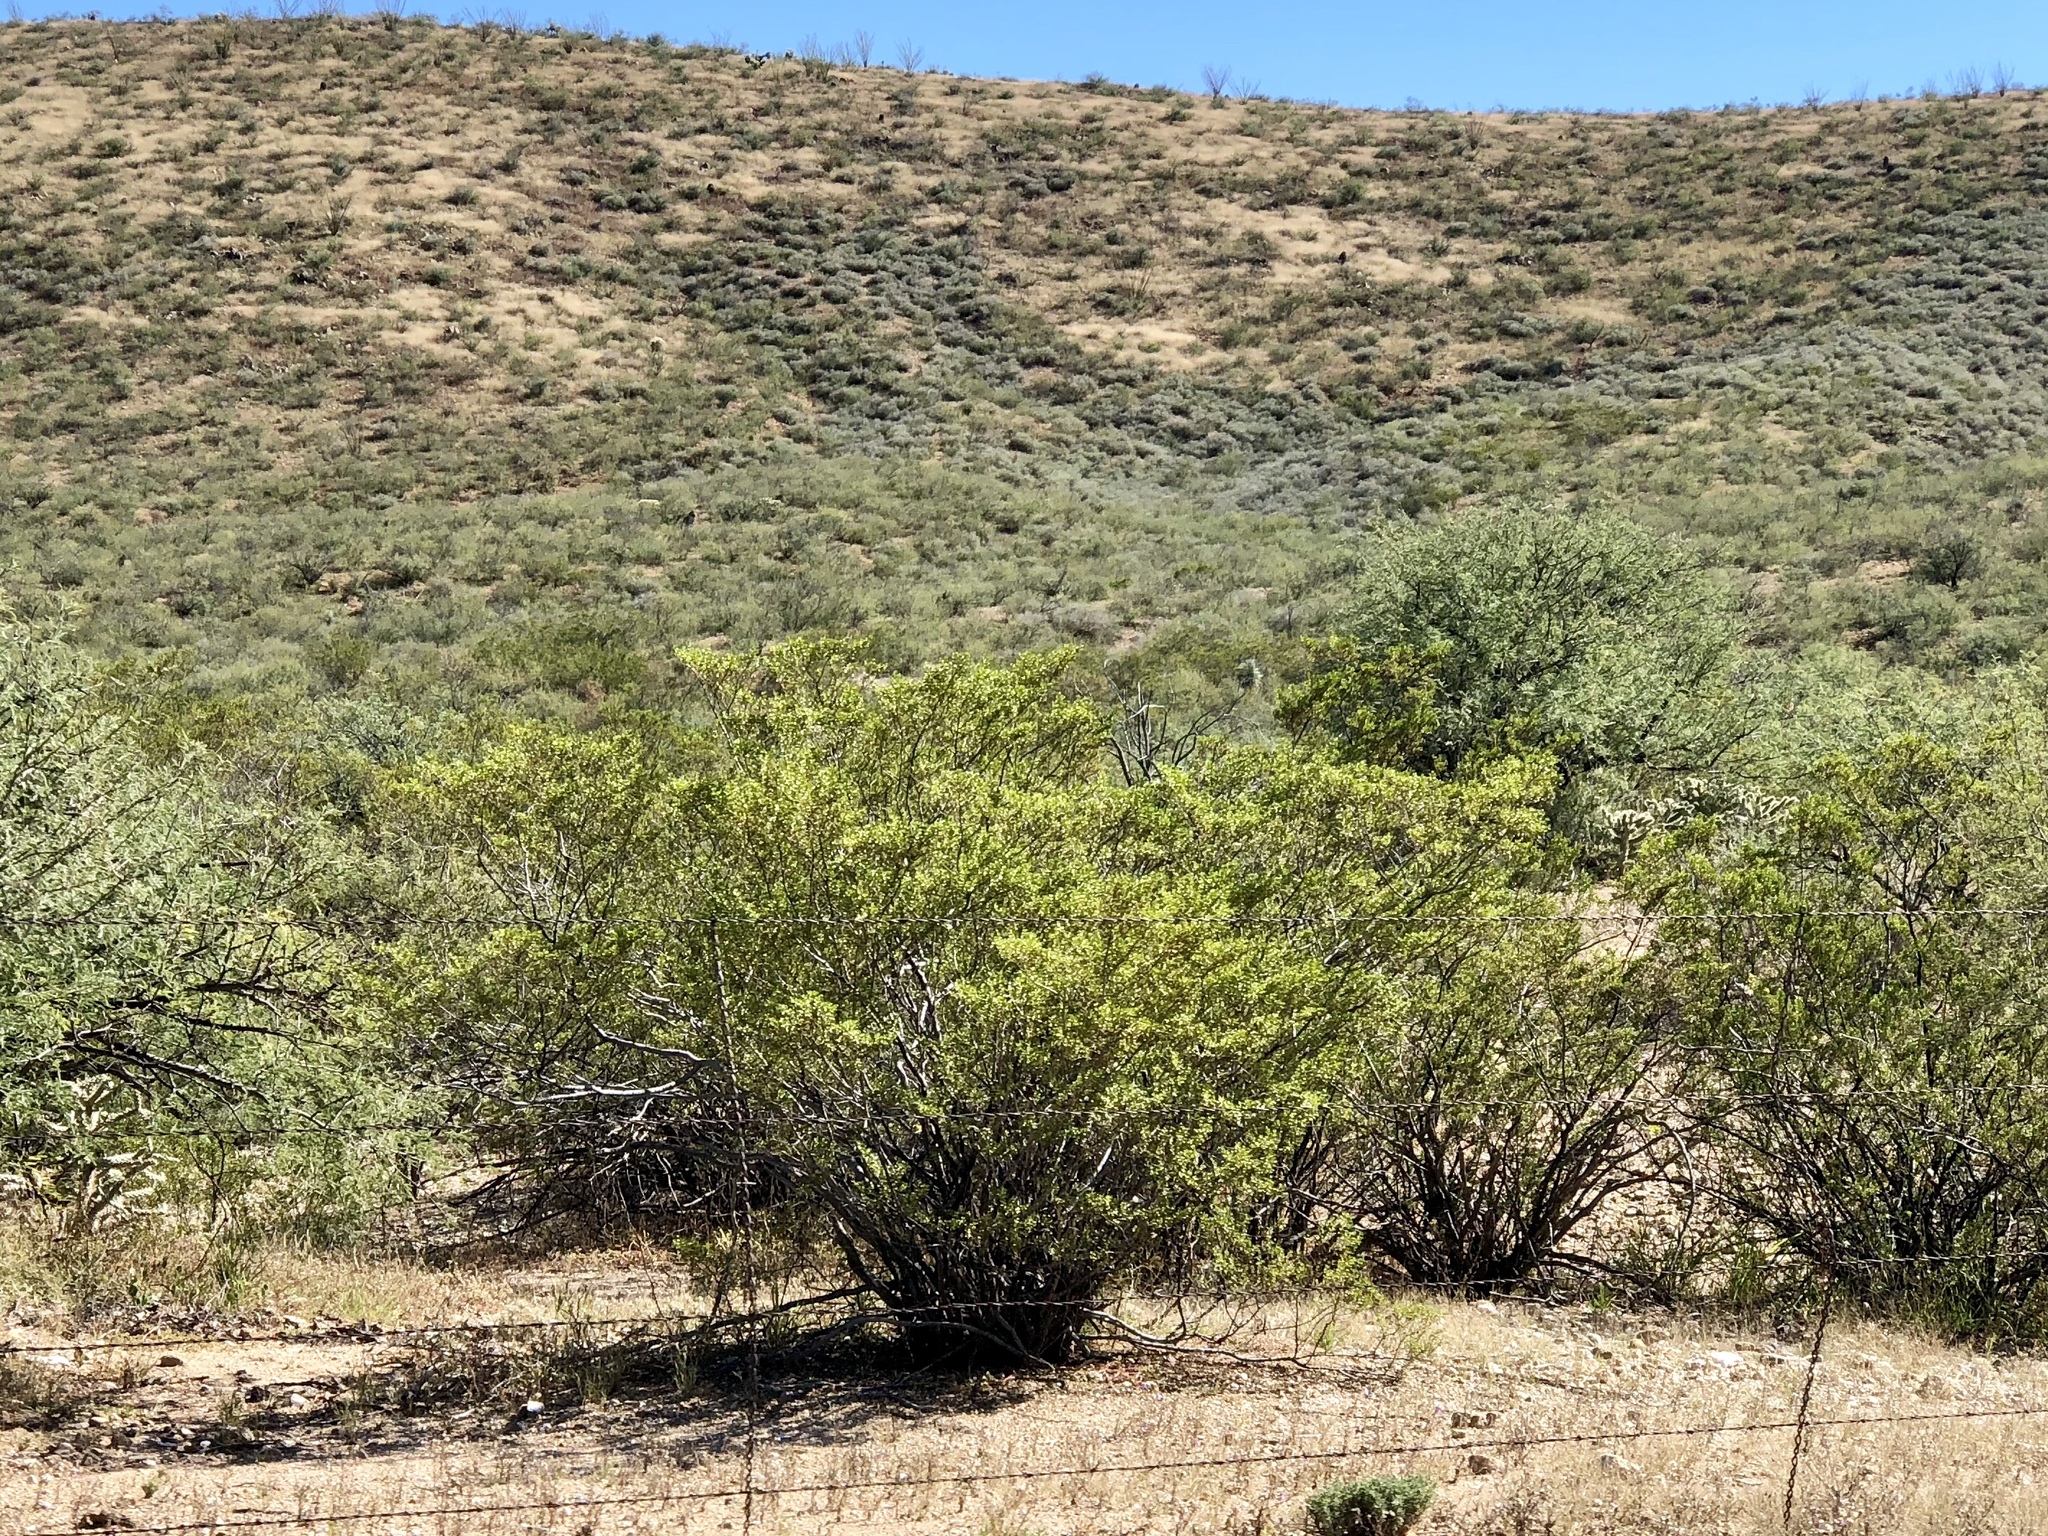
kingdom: Plantae
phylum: Tracheophyta
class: Magnoliopsida
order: Zygophyllales
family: Zygophyllaceae
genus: Larrea
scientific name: Larrea tridentata
